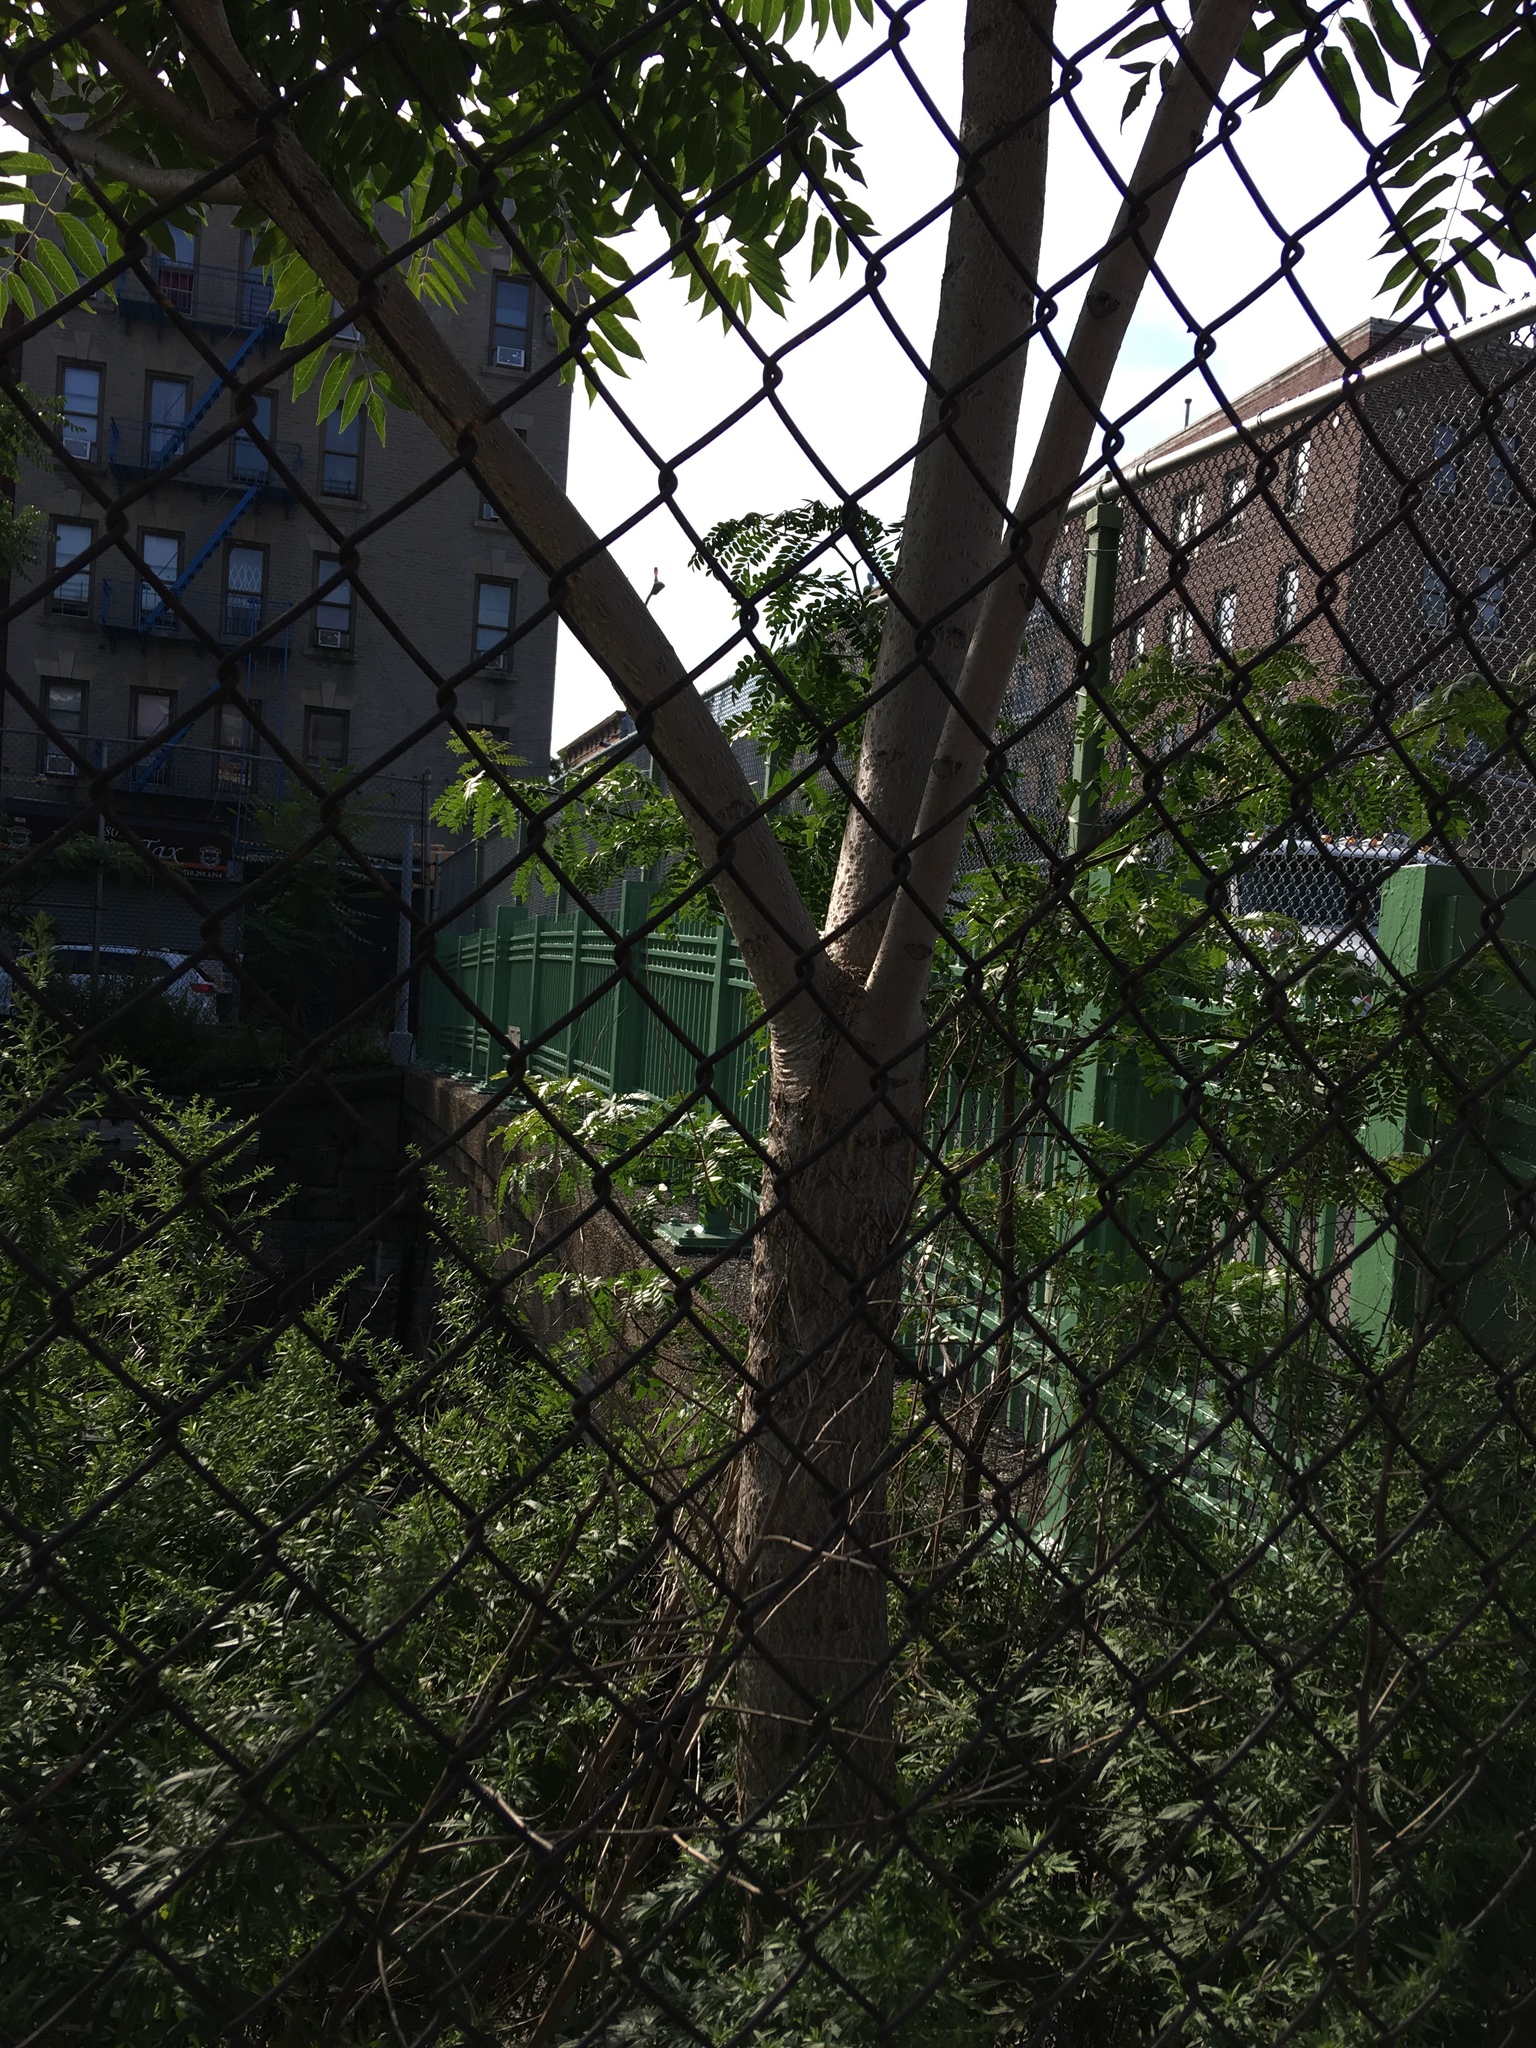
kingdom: Plantae
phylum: Tracheophyta
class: Magnoliopsida
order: Sapindales
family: Simaroubaceae
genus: Ailanthus
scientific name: Ailanthus altissima
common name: Tree-of-heaven
